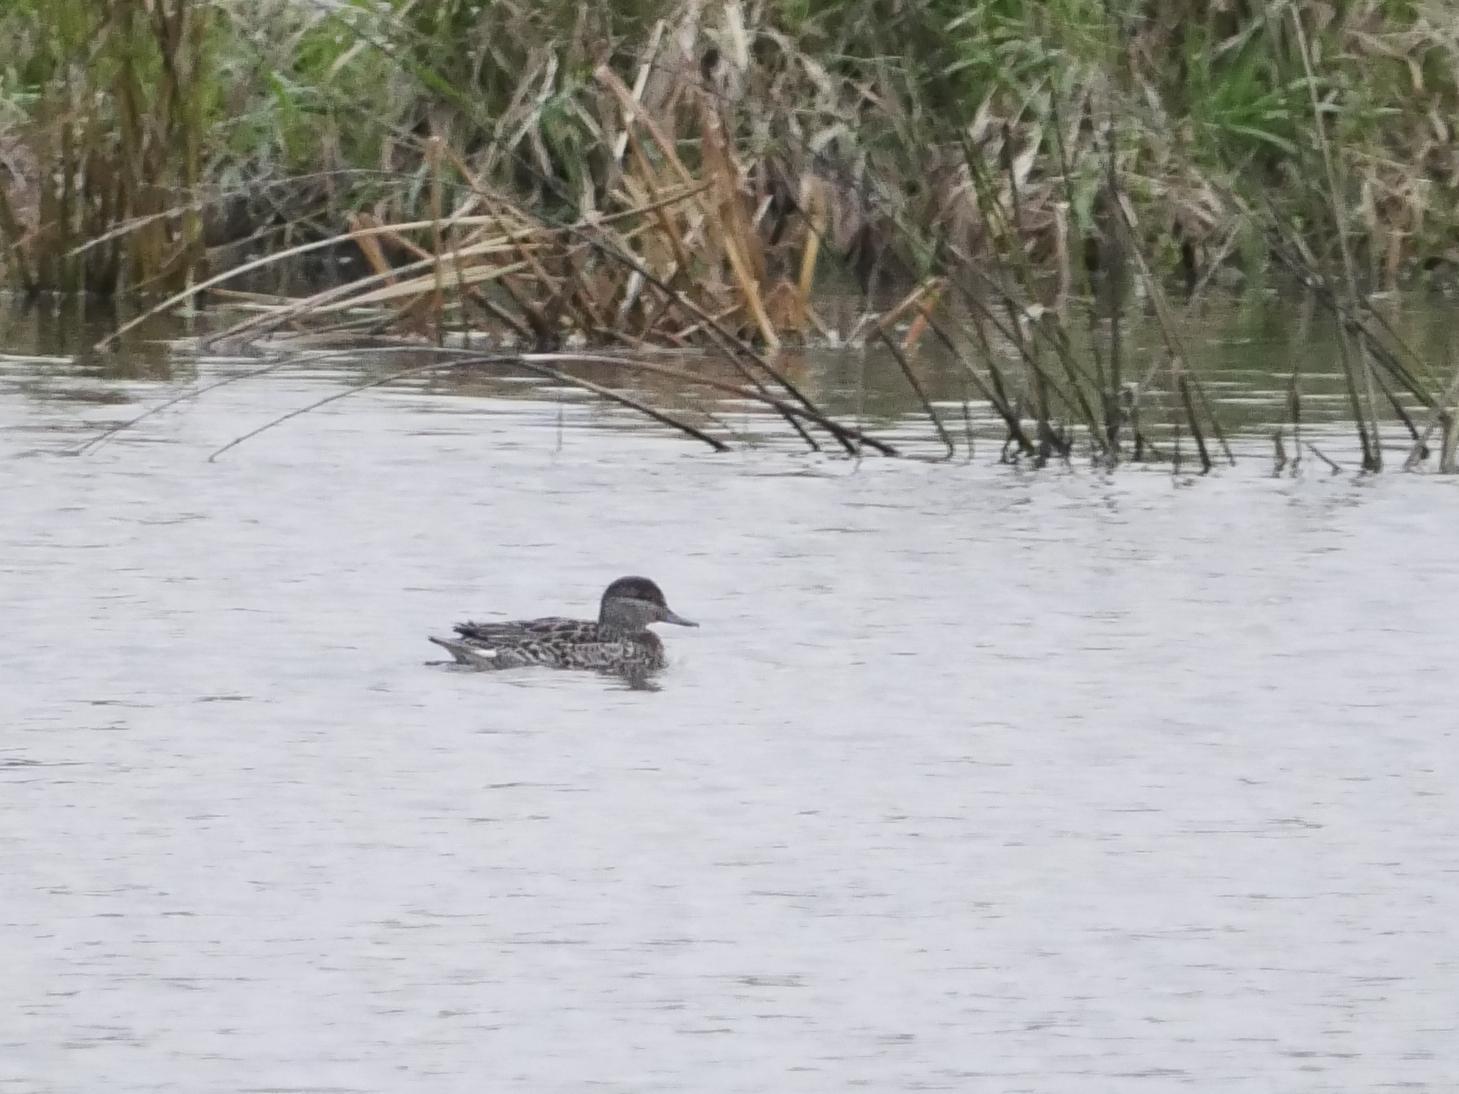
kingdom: Animalia
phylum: Chordata
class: Aves
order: Anseriformes
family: Anatidae
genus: Anas
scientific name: Anas crecca
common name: Eurasian teal
